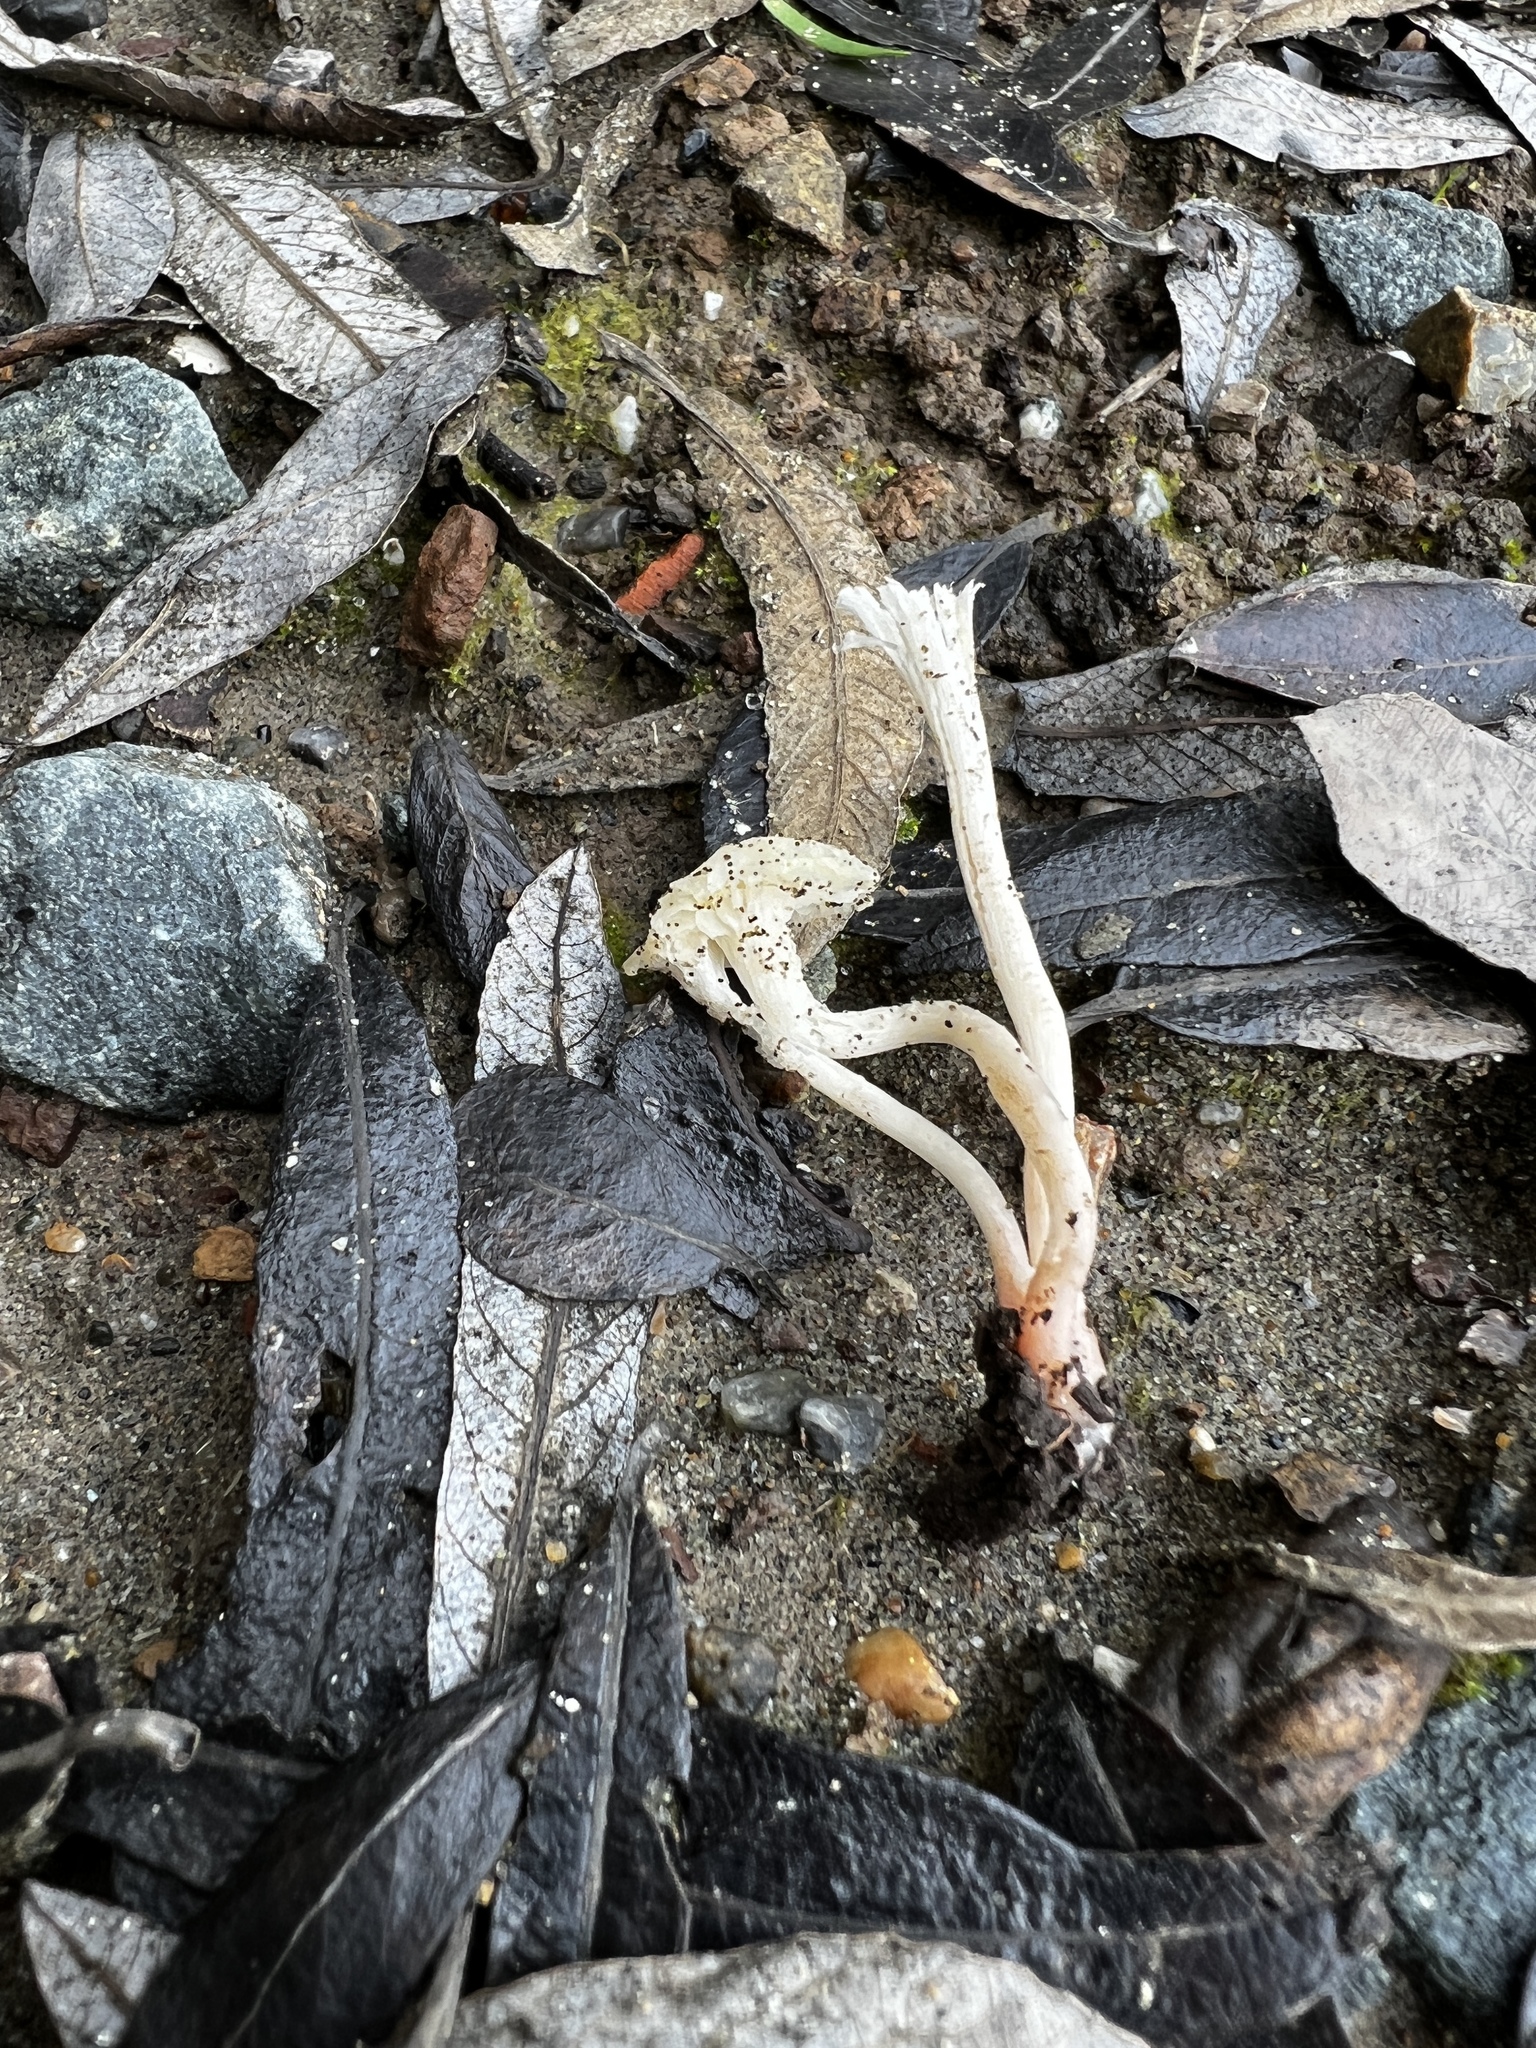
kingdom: Fungi
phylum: Basidiomycota
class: Agaricomycetes
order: Agaricales
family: Hygrophoraceae
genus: Cuphophyllus
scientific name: Cuphophyllus russocoriaceus
